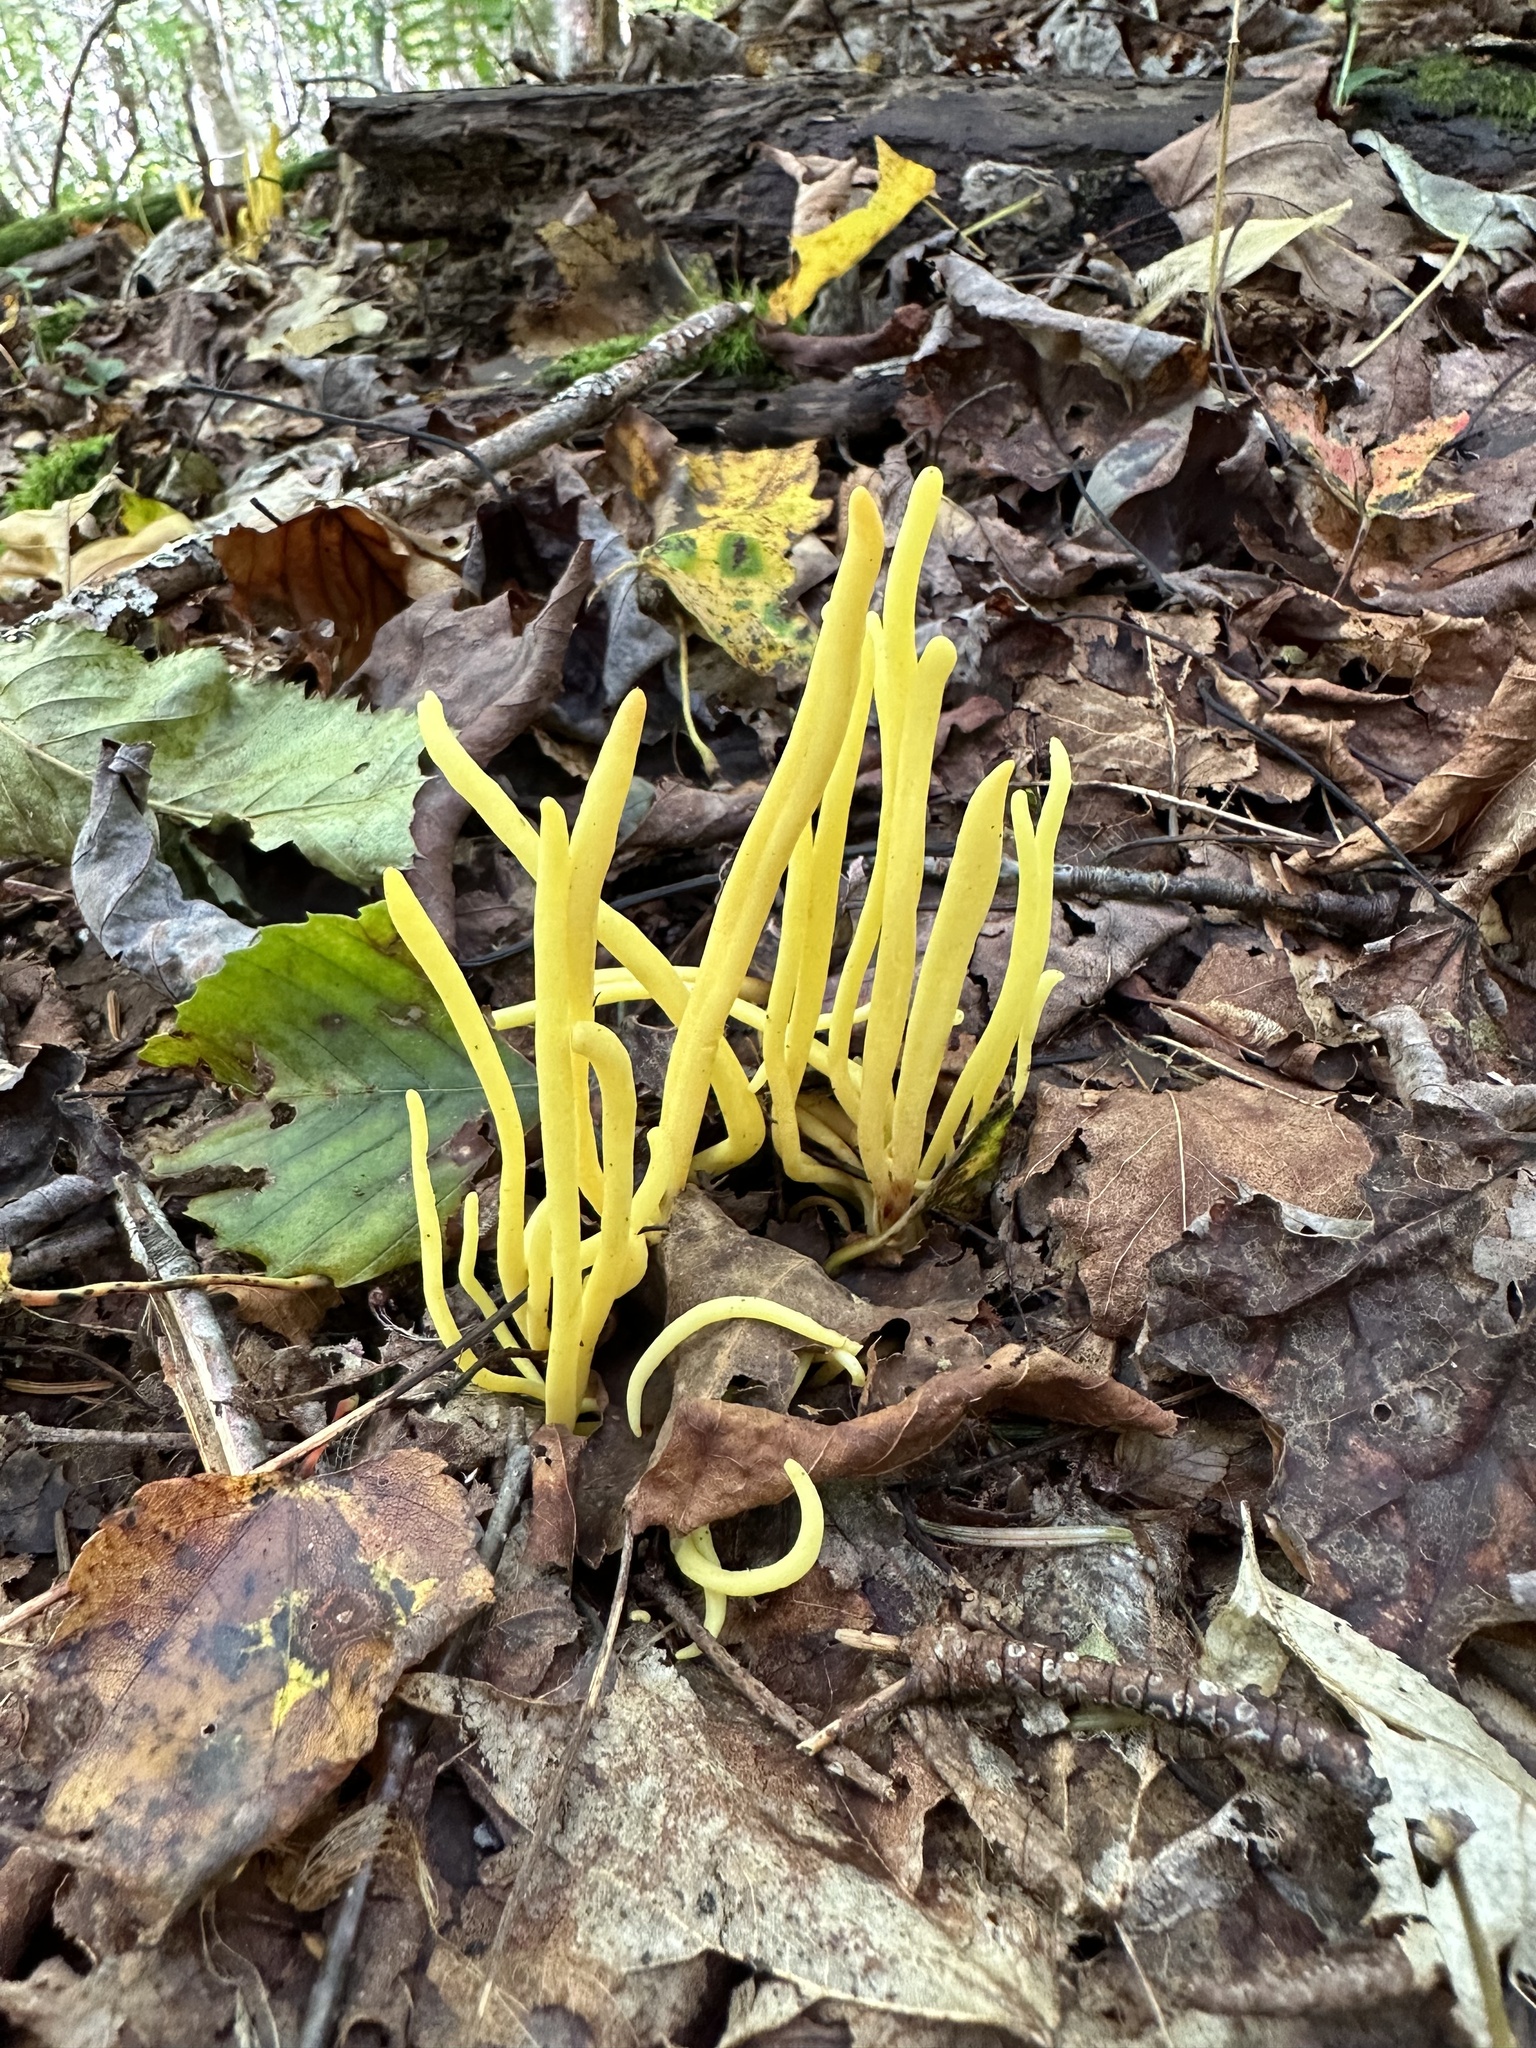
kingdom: Fungi
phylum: Basidiomycota
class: Agaricomycetes
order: Agaricales
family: Clavariaceae
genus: Clavulinopsis
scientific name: Clavulinopsis fusiformis
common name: Golden spindles
